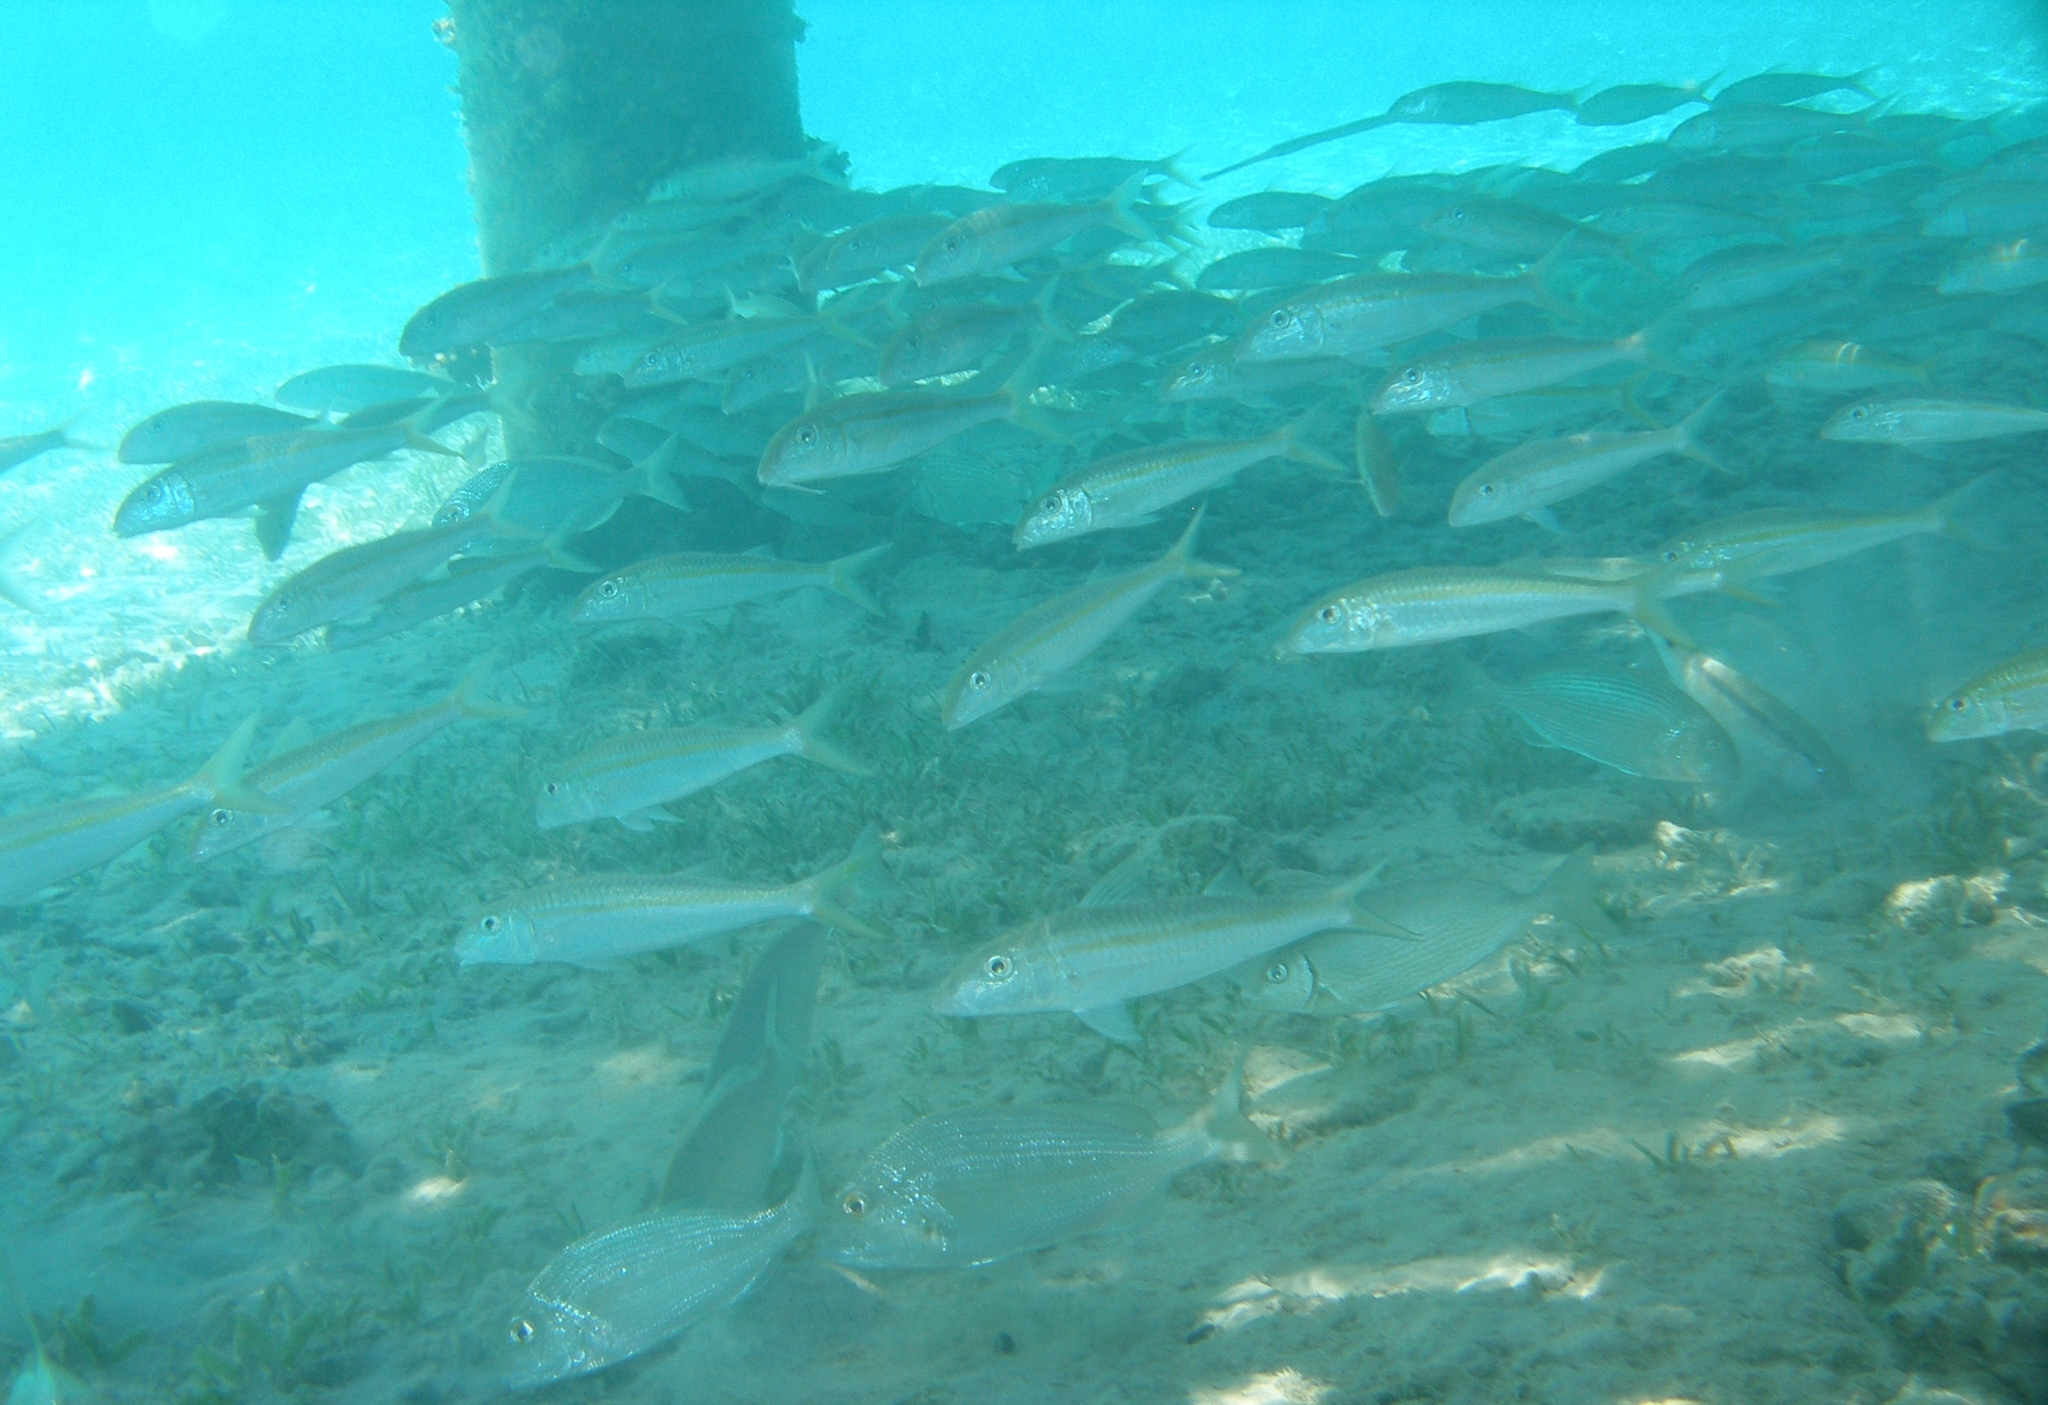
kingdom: Animalia
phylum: Chordata
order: Perciformes
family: Mullidae
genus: Mulloidichthys
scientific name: Mulloidichthys flavolineatus
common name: Yellowstripe goatfish
